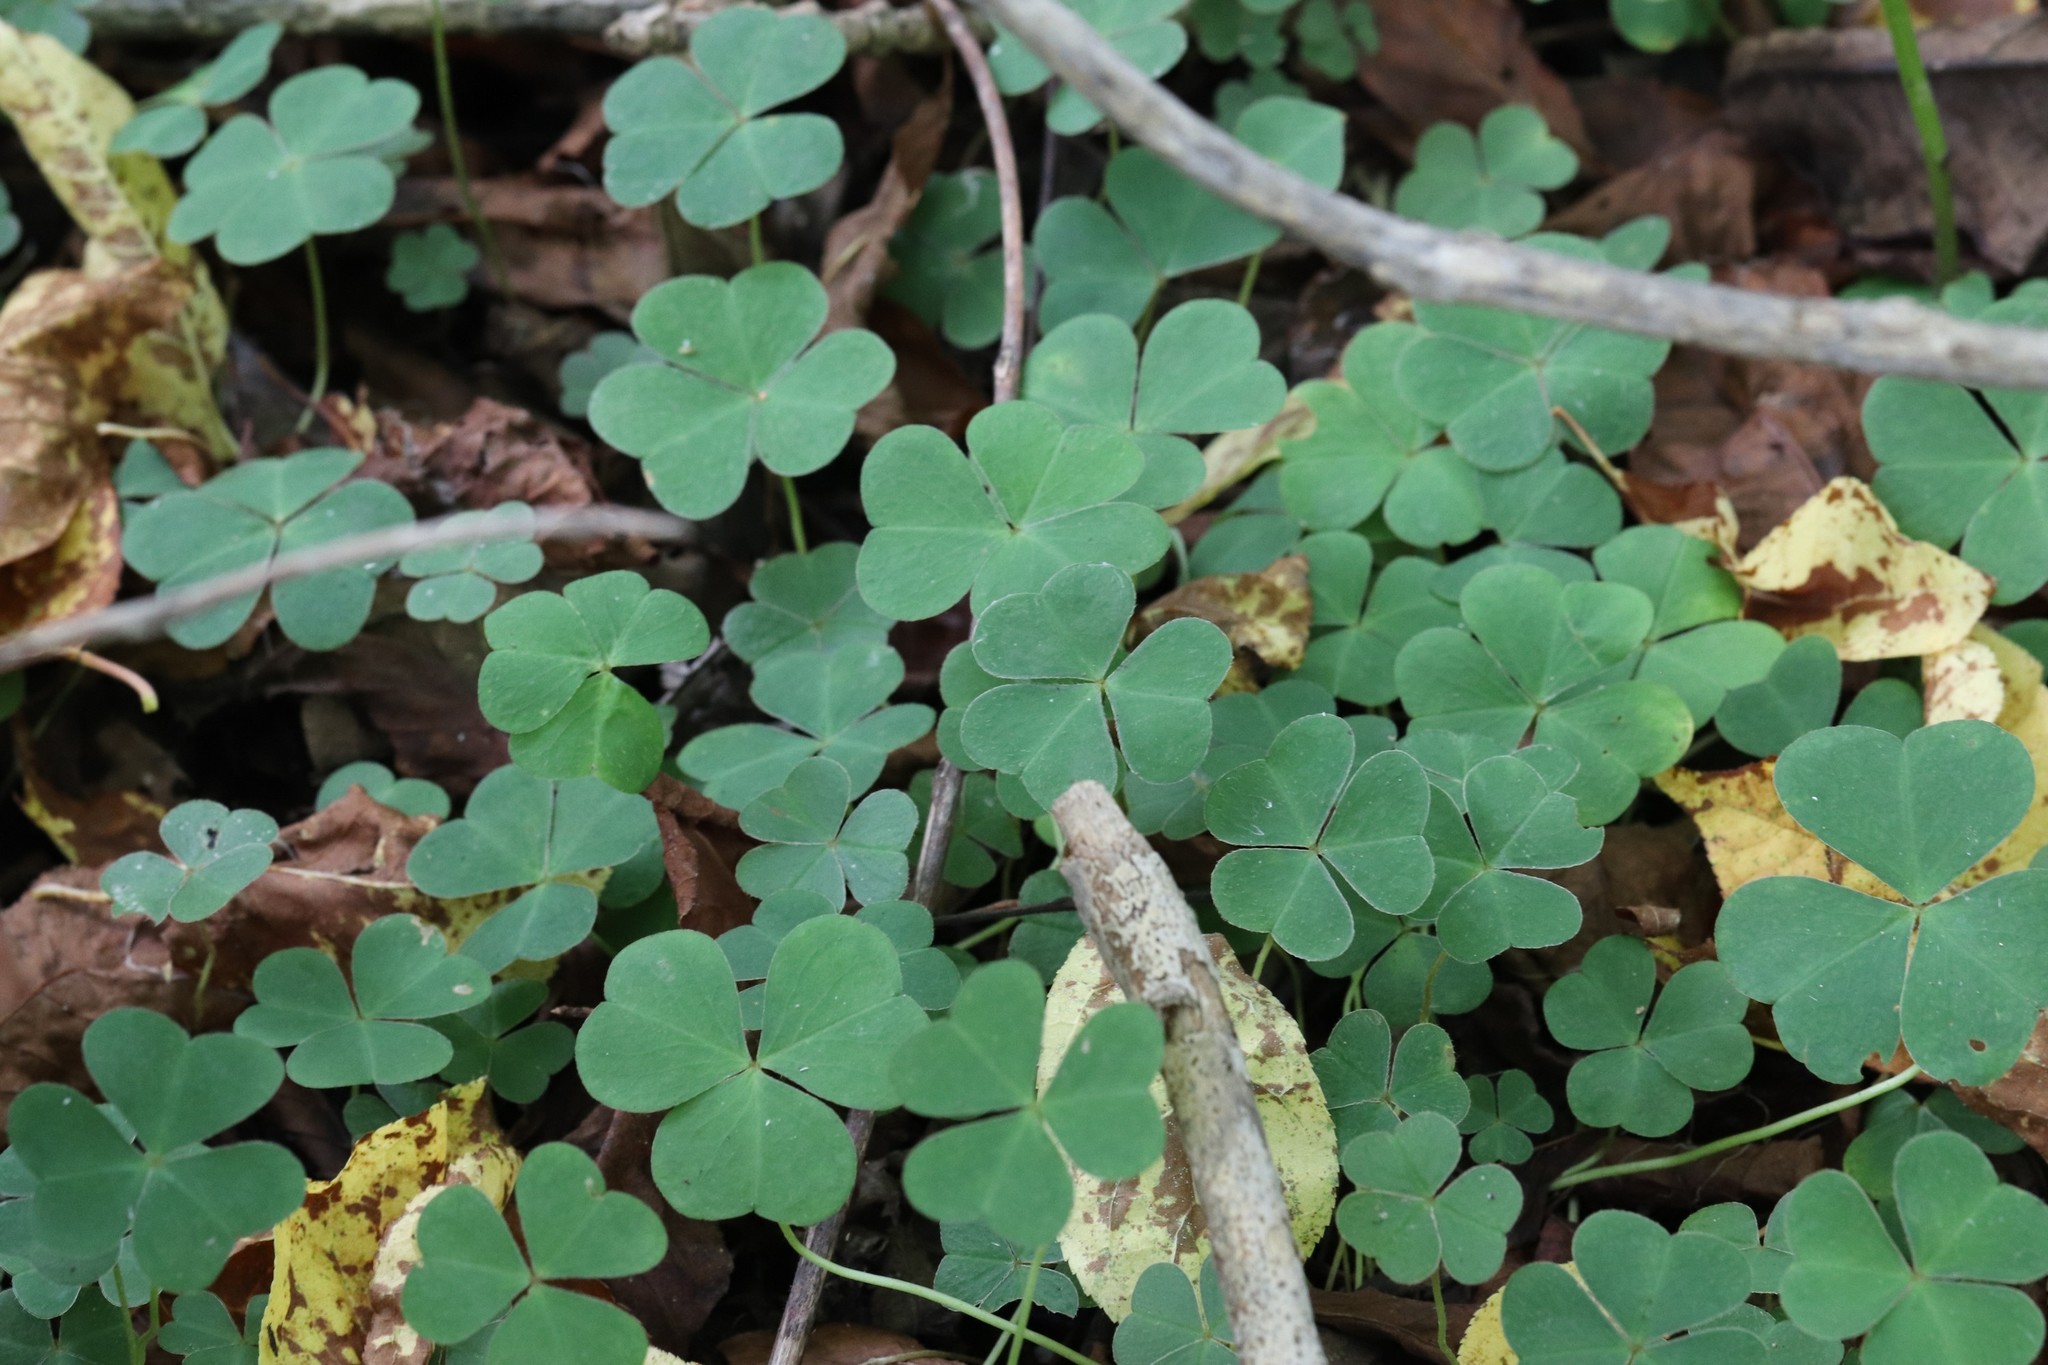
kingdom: Plantae
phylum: Tracheophyta
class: Magnoliopsida
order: Oxalidales
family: Oxalidaceae
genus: Oxalis
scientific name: Oxalis acetosella
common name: Wood-sorrel
